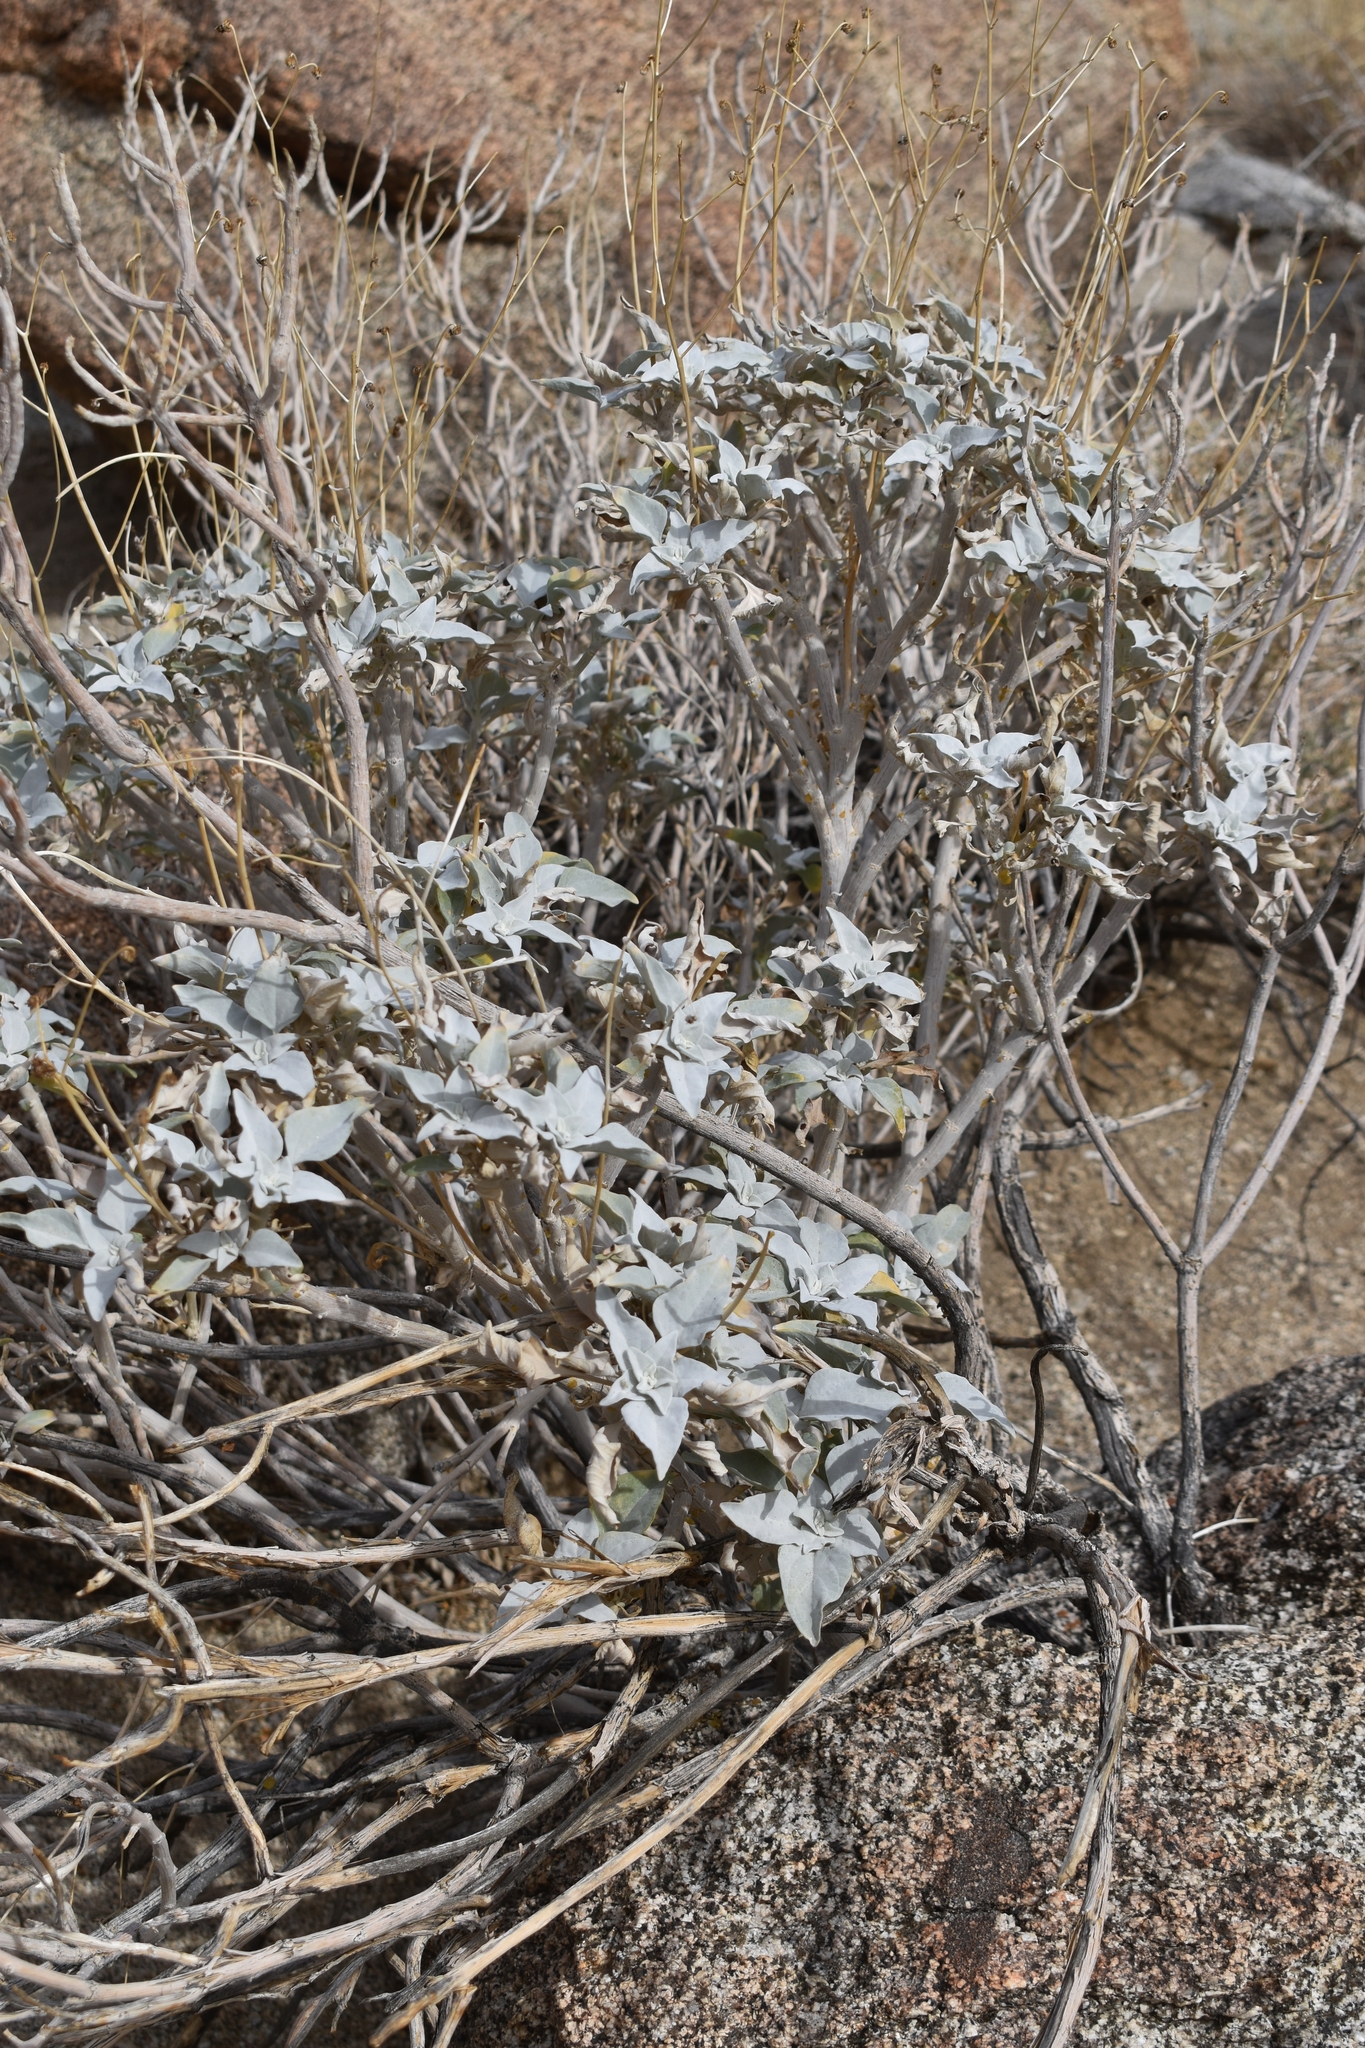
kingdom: Plantae
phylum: Tracheophyta
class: Magnoliopsida
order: Lamiales
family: Lamiaceae
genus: Salvia
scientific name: Salvia vaseyi
